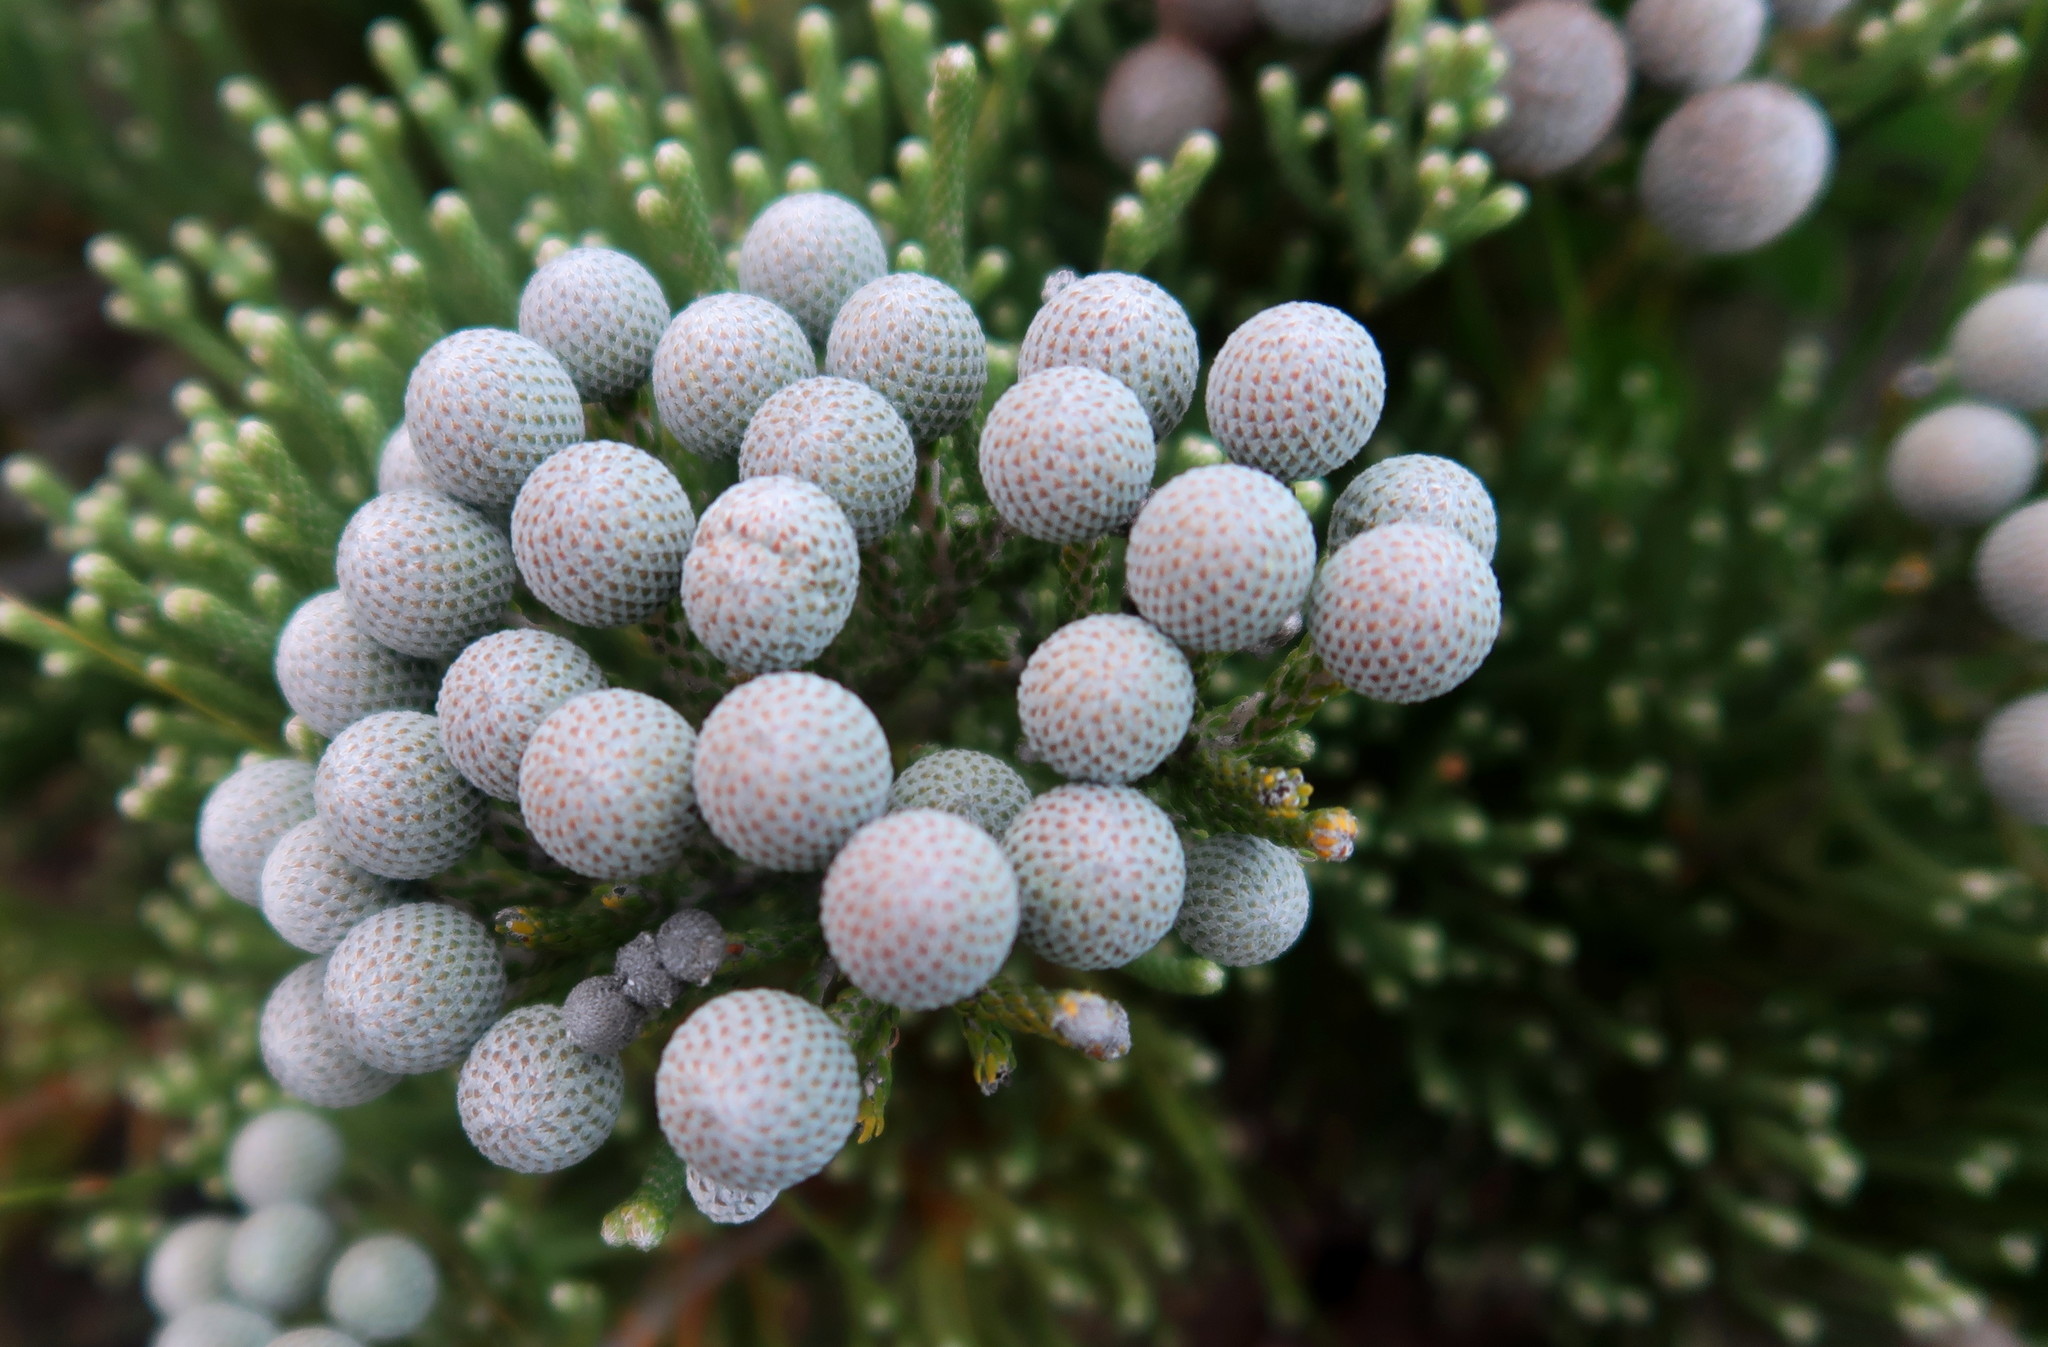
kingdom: Plantae
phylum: Tracheophyta
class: Magnoliopsida
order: Bruniales
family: Bruniaceae
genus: Brunia
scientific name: Brunia noduliflora
